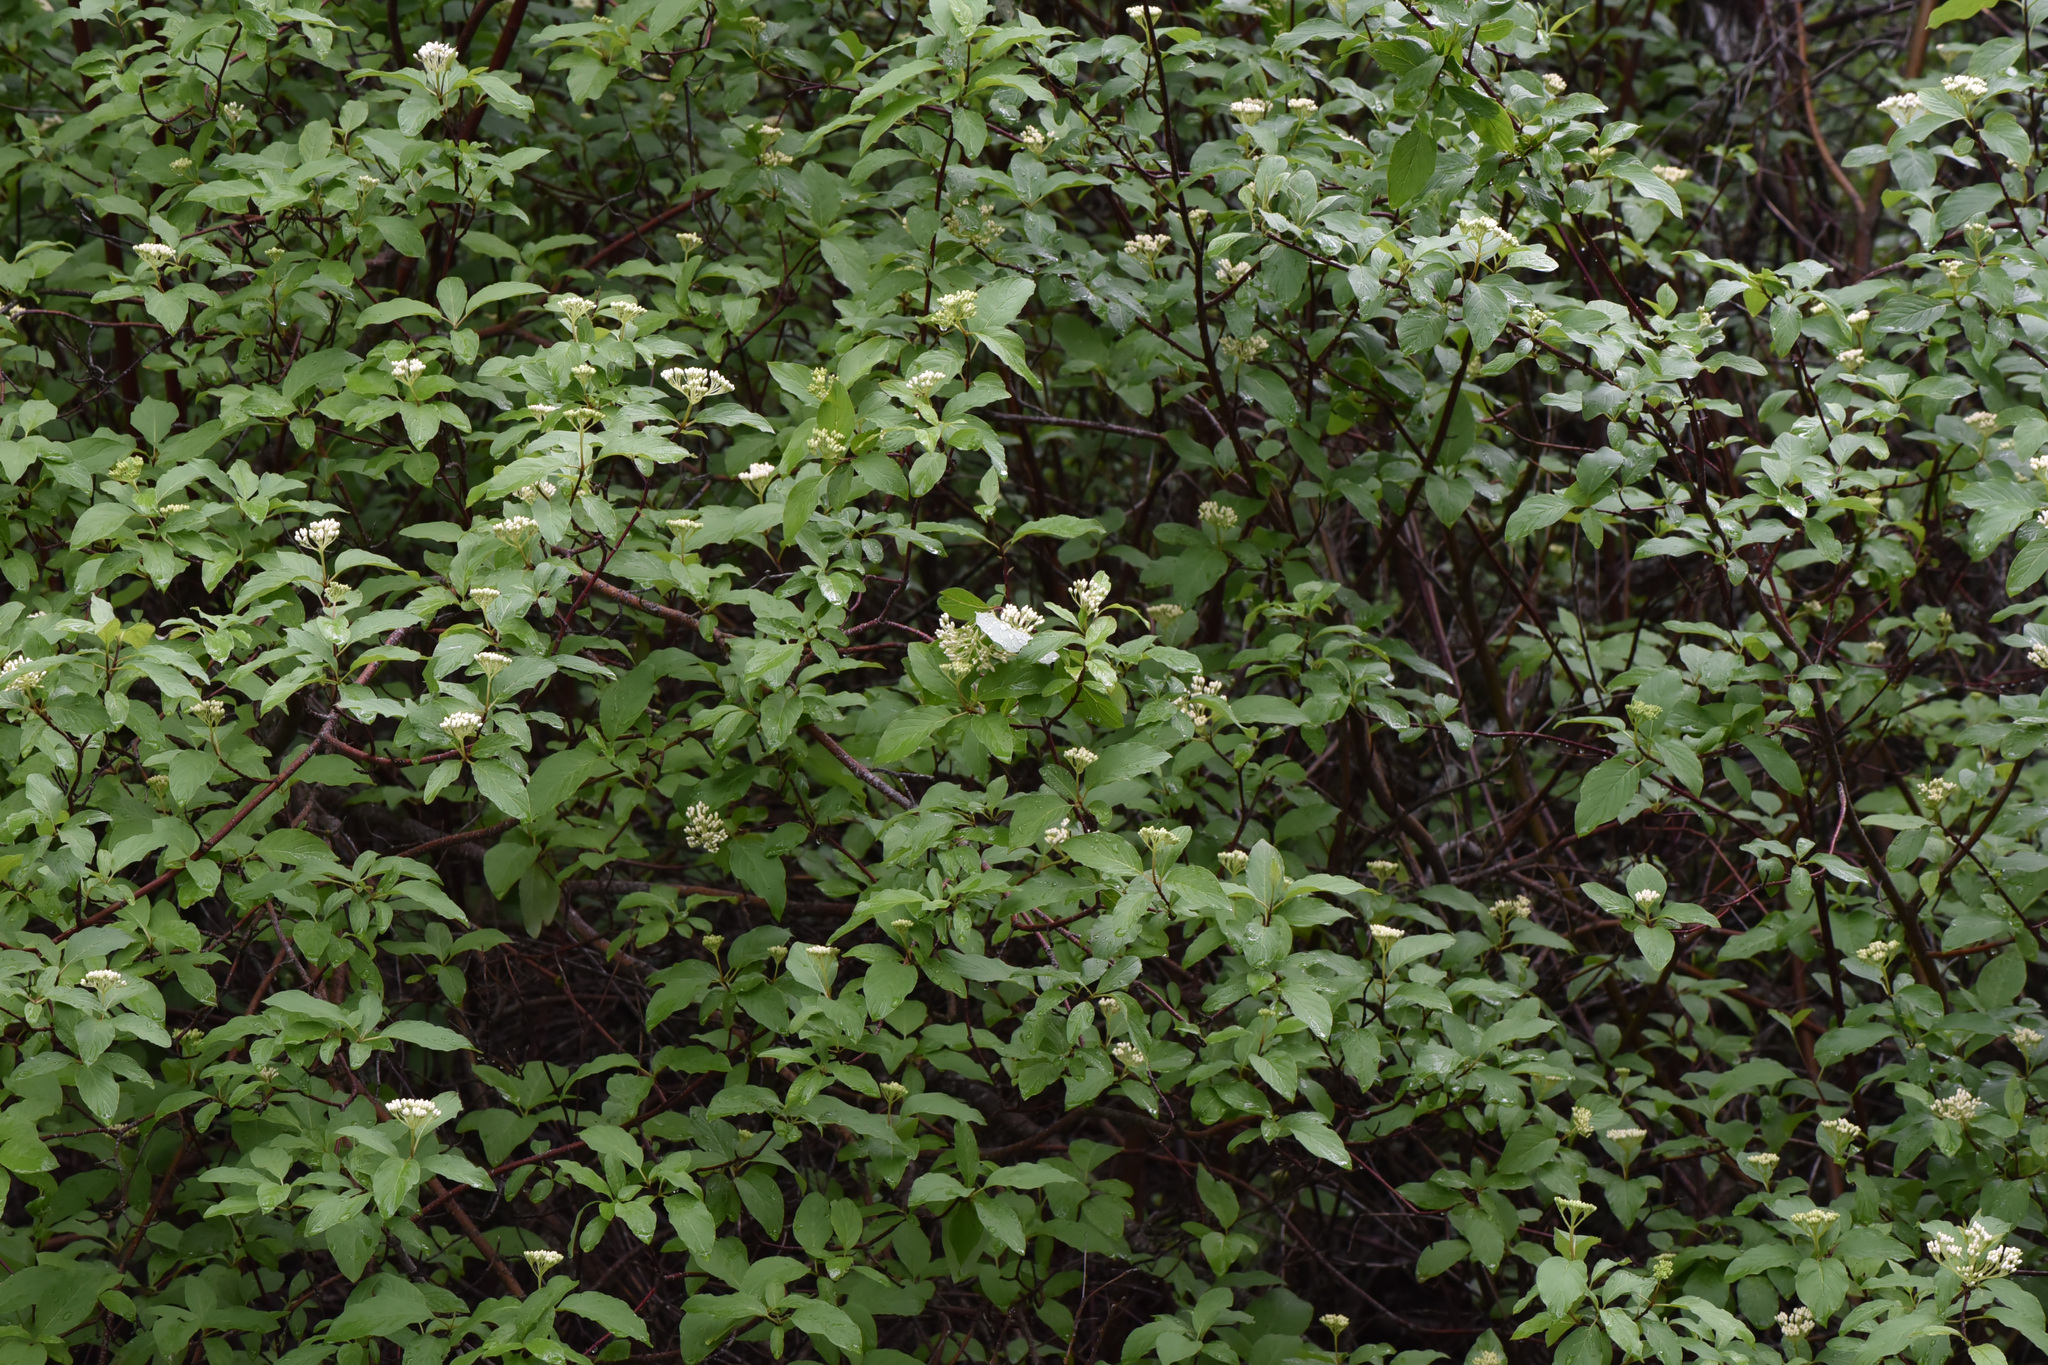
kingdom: Plantae
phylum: Tracheophyta
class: Magnoliopsida
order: Cornales
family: Cornaceae
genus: Cornus
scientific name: Cornus sericea
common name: Red-osier dogwood
